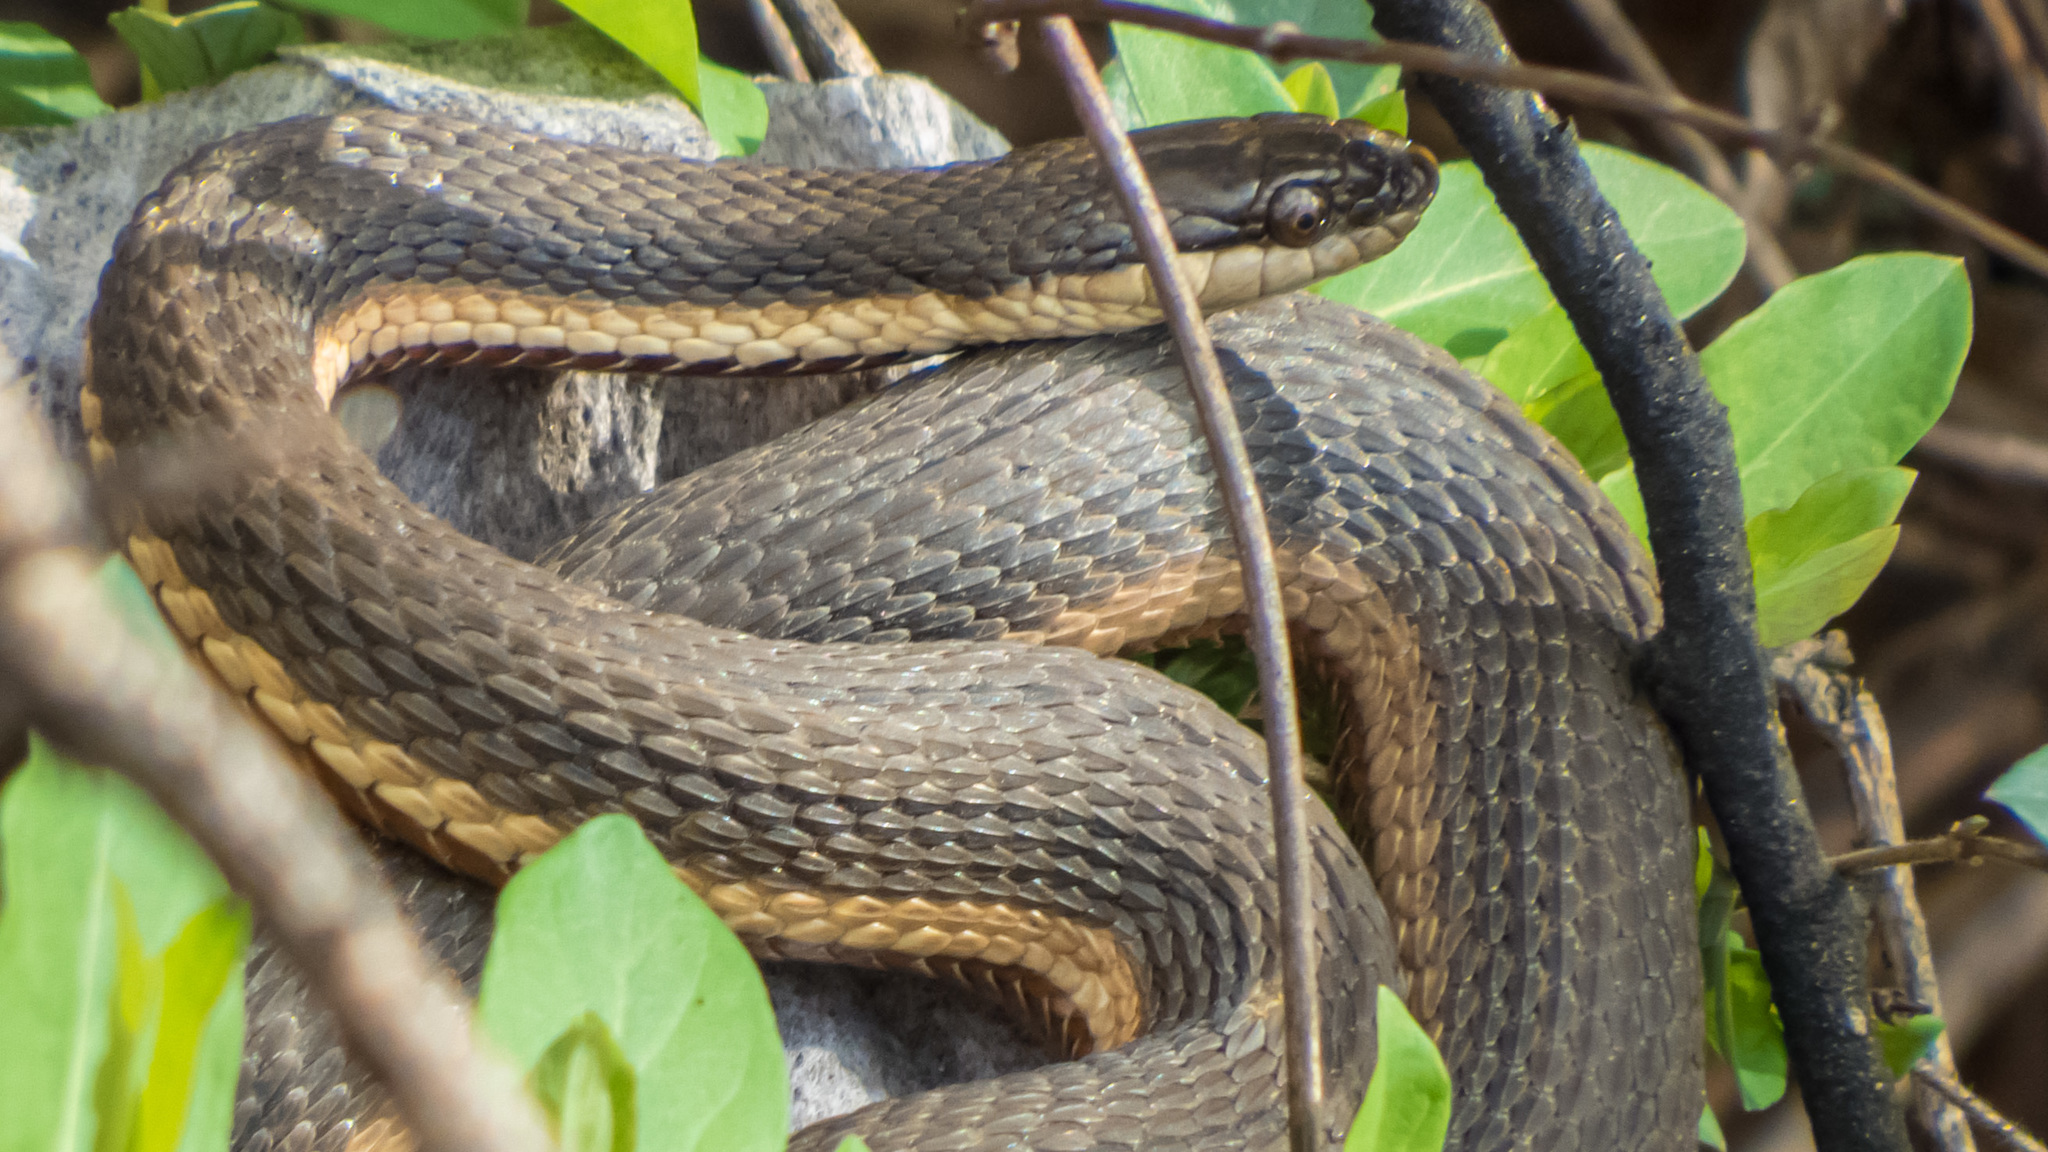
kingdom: Animalia
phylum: Chordata
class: Squamata
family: Colubridae
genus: Regina
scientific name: Regina septemvittata
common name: Queen snake
